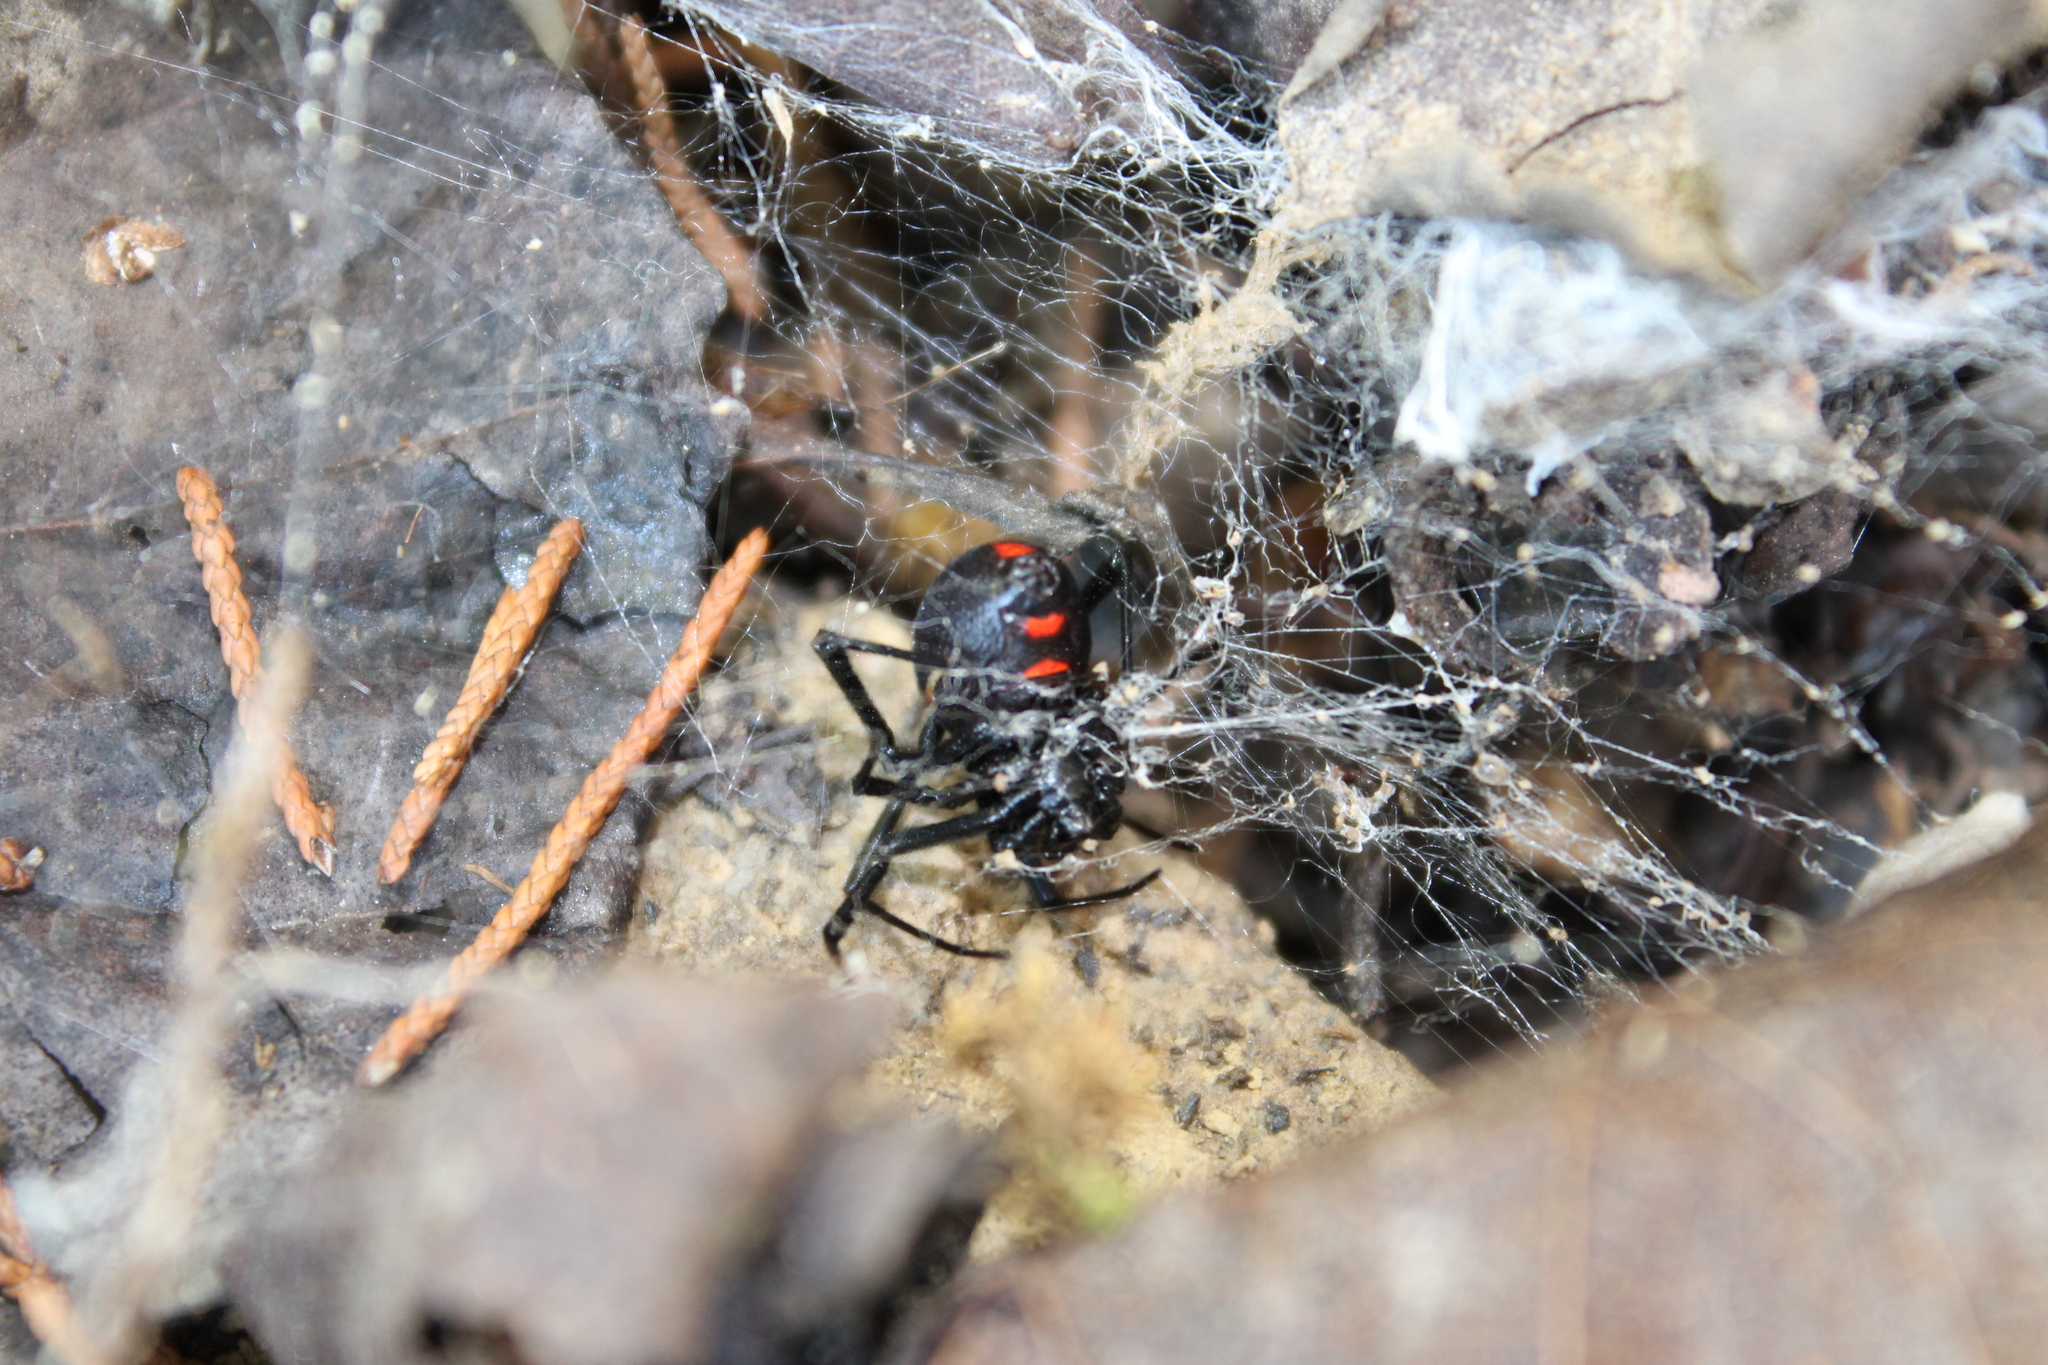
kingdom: Animalia
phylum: Arthropoda
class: Arachnida
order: Araneae
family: Theridiidae
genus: Latrodectus
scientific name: Latrodectus variolus
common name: Northern black widow
